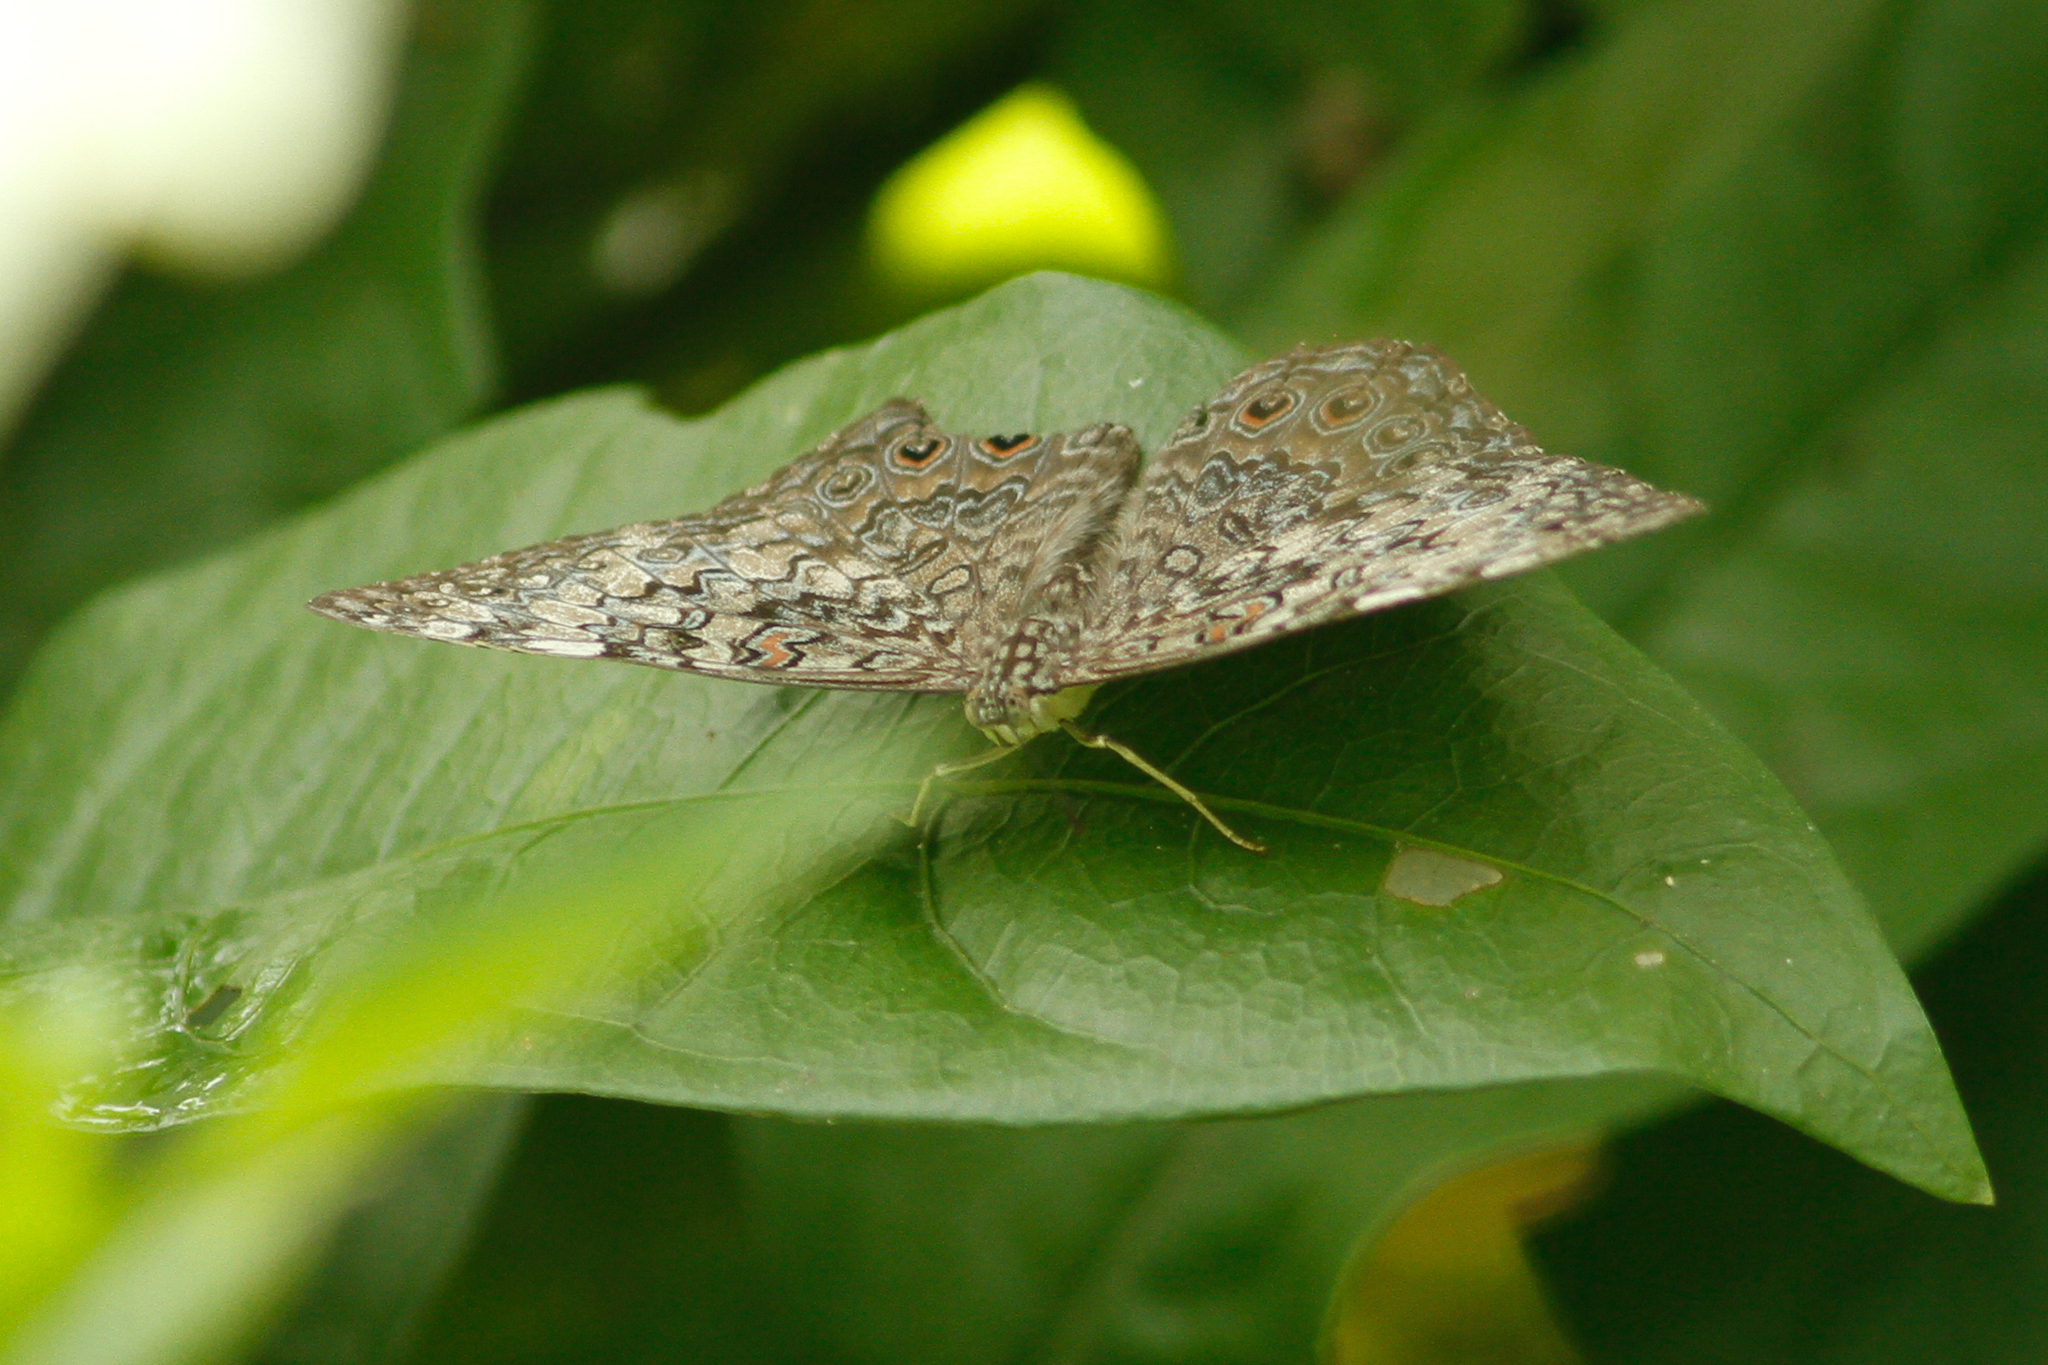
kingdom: Animalia
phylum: Arthropoda
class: Insecta
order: Lepidoptera
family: Nymphalidae
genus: Hamadryas
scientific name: Hamadryas februa
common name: Gray cracker
